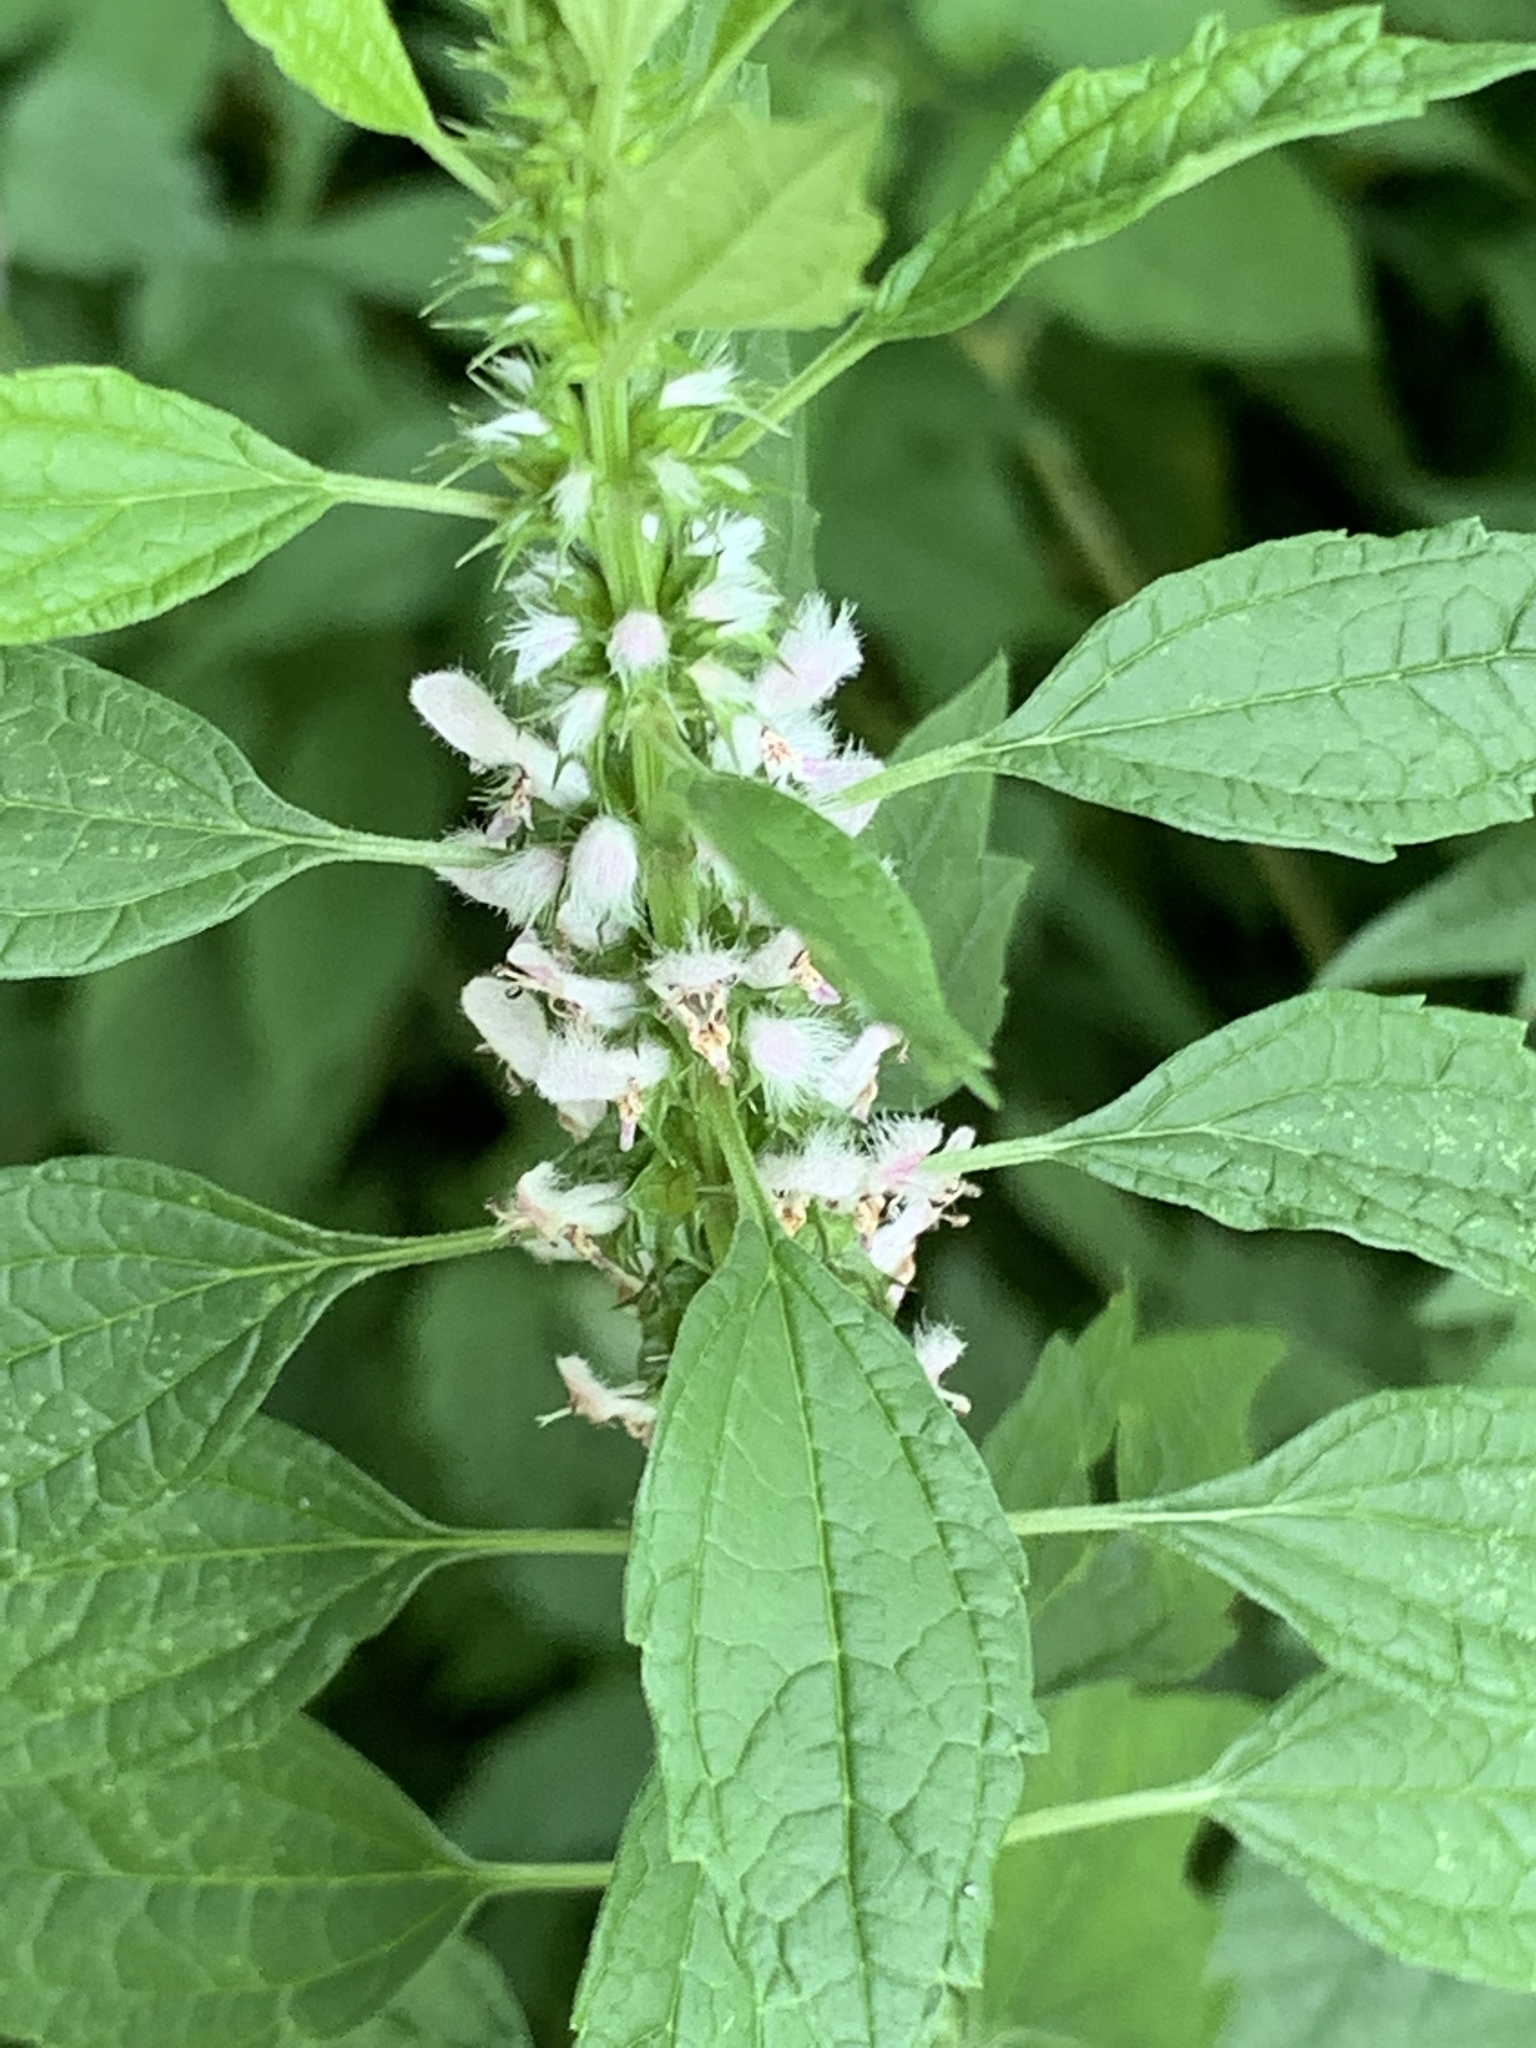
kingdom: Plantae
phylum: Tracheophyta
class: Magnoliopsida
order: Lamiales
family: Lamiaceae
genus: Leonurus
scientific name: Leonurus cardiaca
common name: Motherwort
